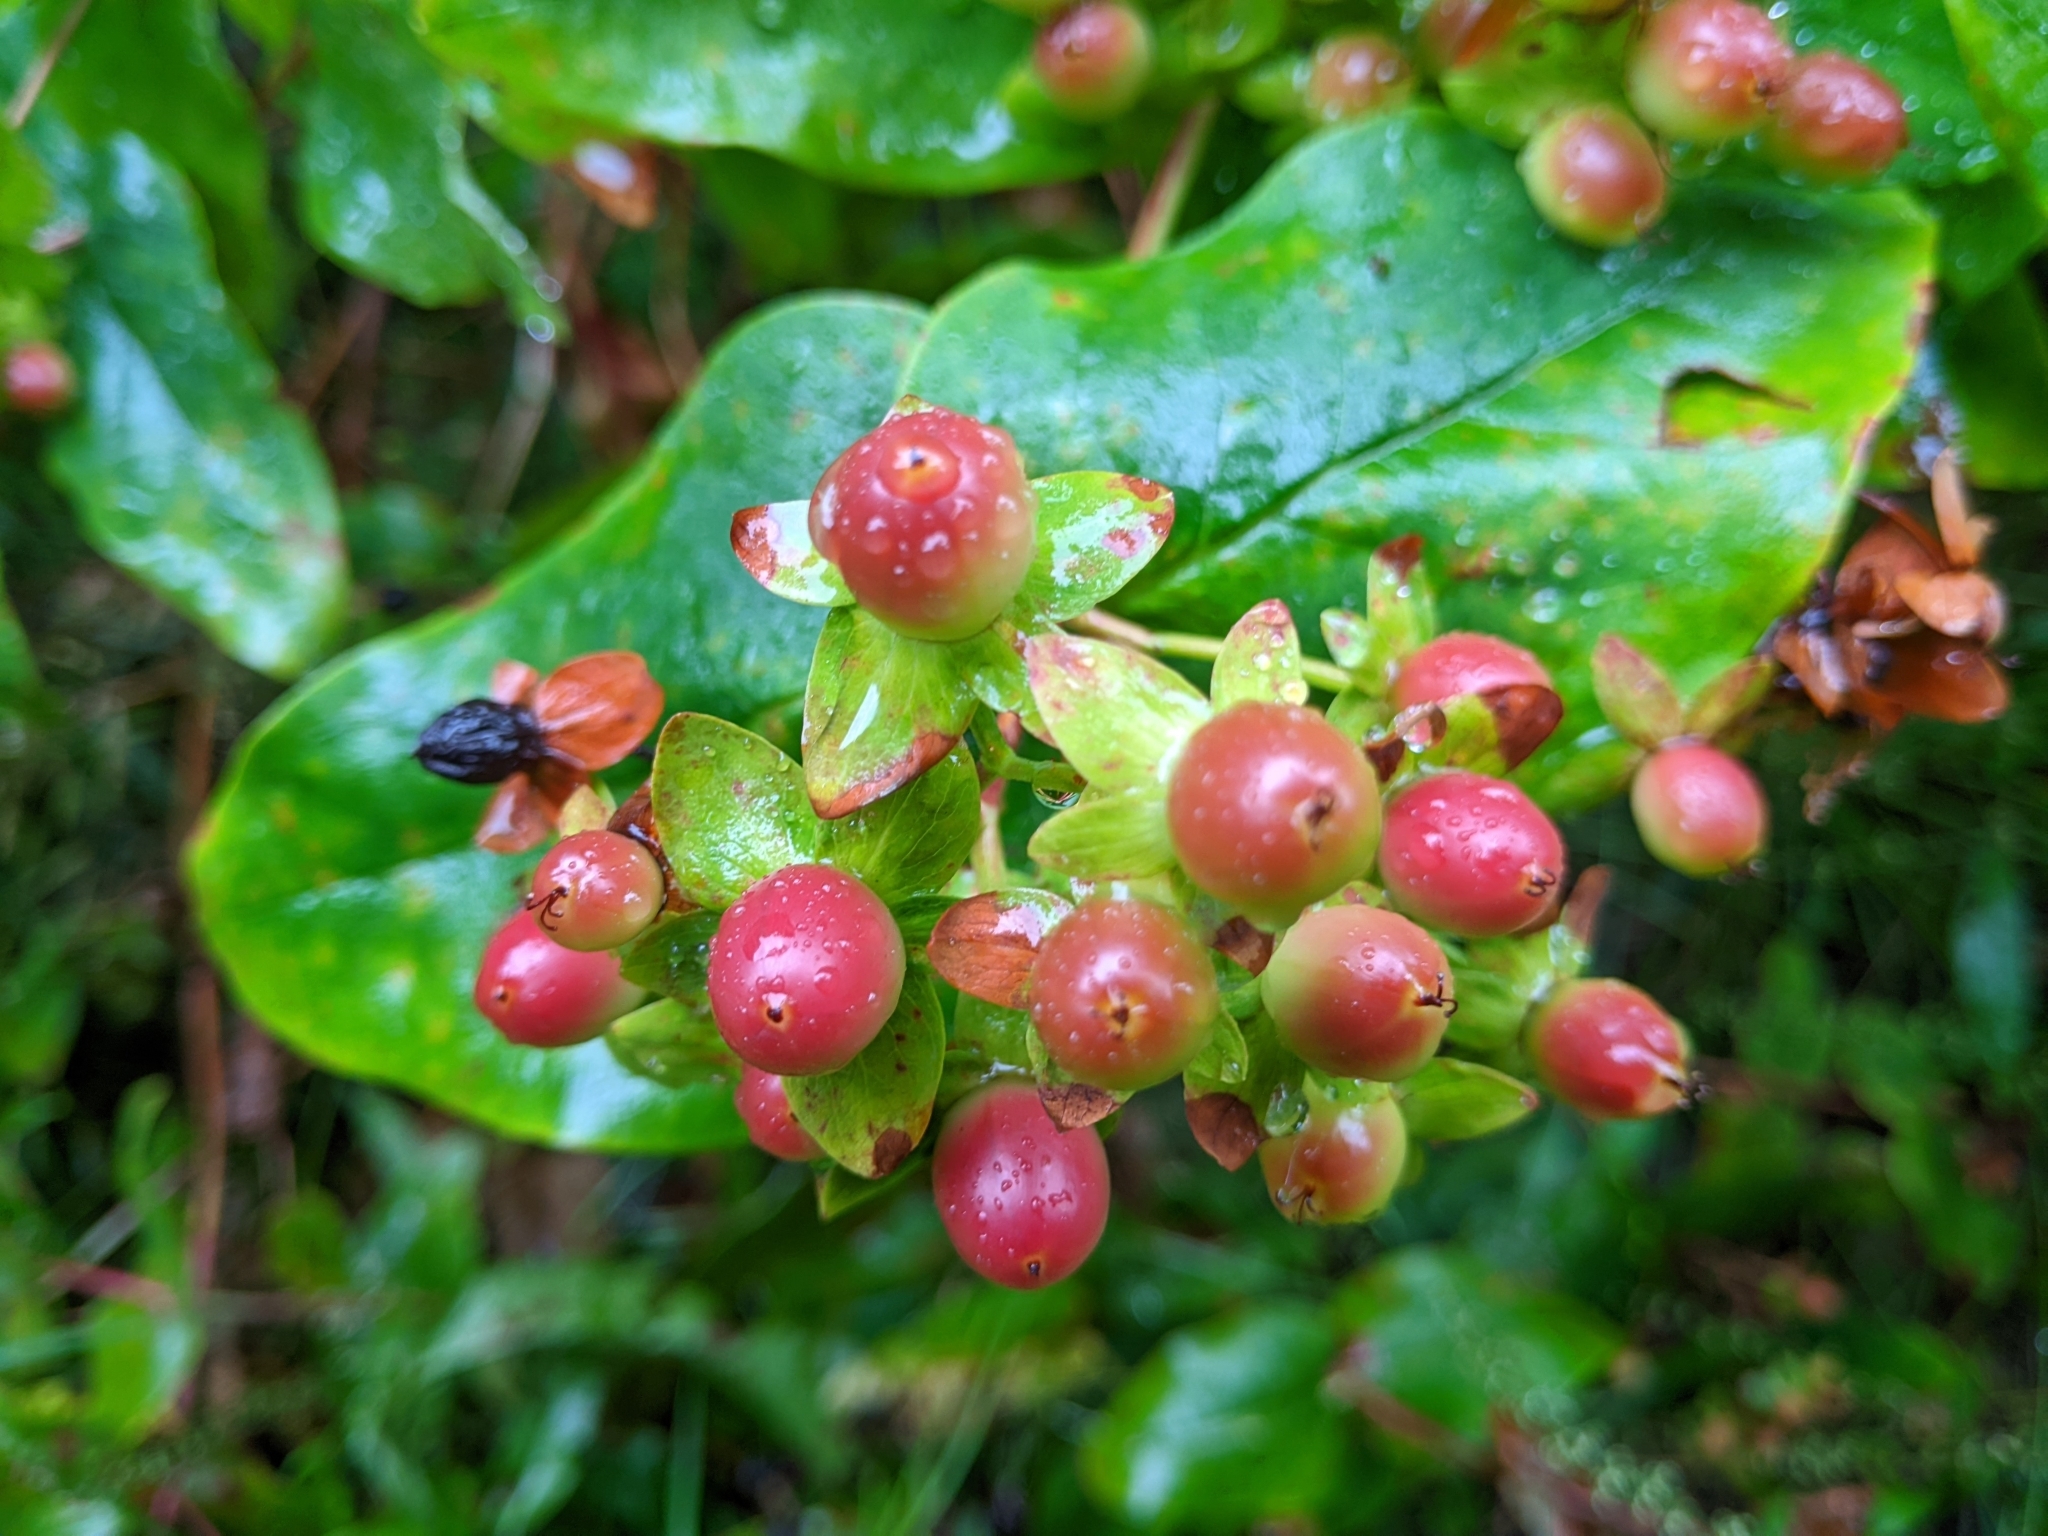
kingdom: Plantae
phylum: Tracheophyta
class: Magnoliopsida
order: Malpighiales
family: Hypericaceae
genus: Hypericum
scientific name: Hypericum androsaemum
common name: Sweet-amber
